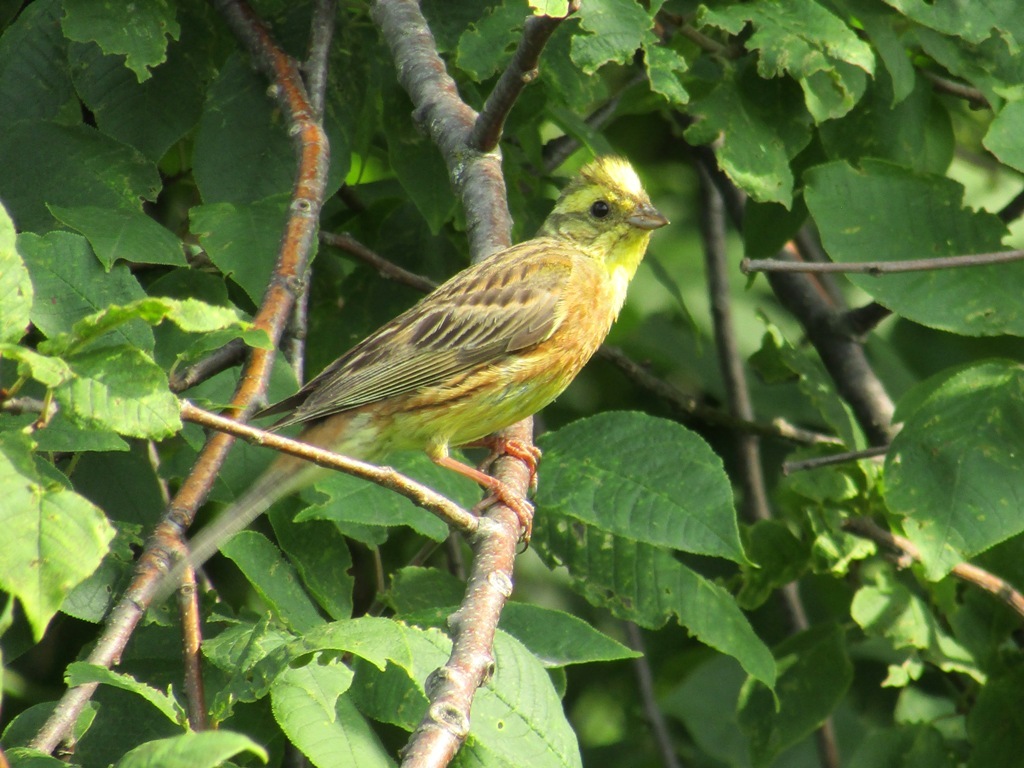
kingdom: Animalia
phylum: Chordata
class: Aves
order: Passeriformes
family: Emberizidae
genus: Emberiza
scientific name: Emberiza citrinella
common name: Yellowhammer
